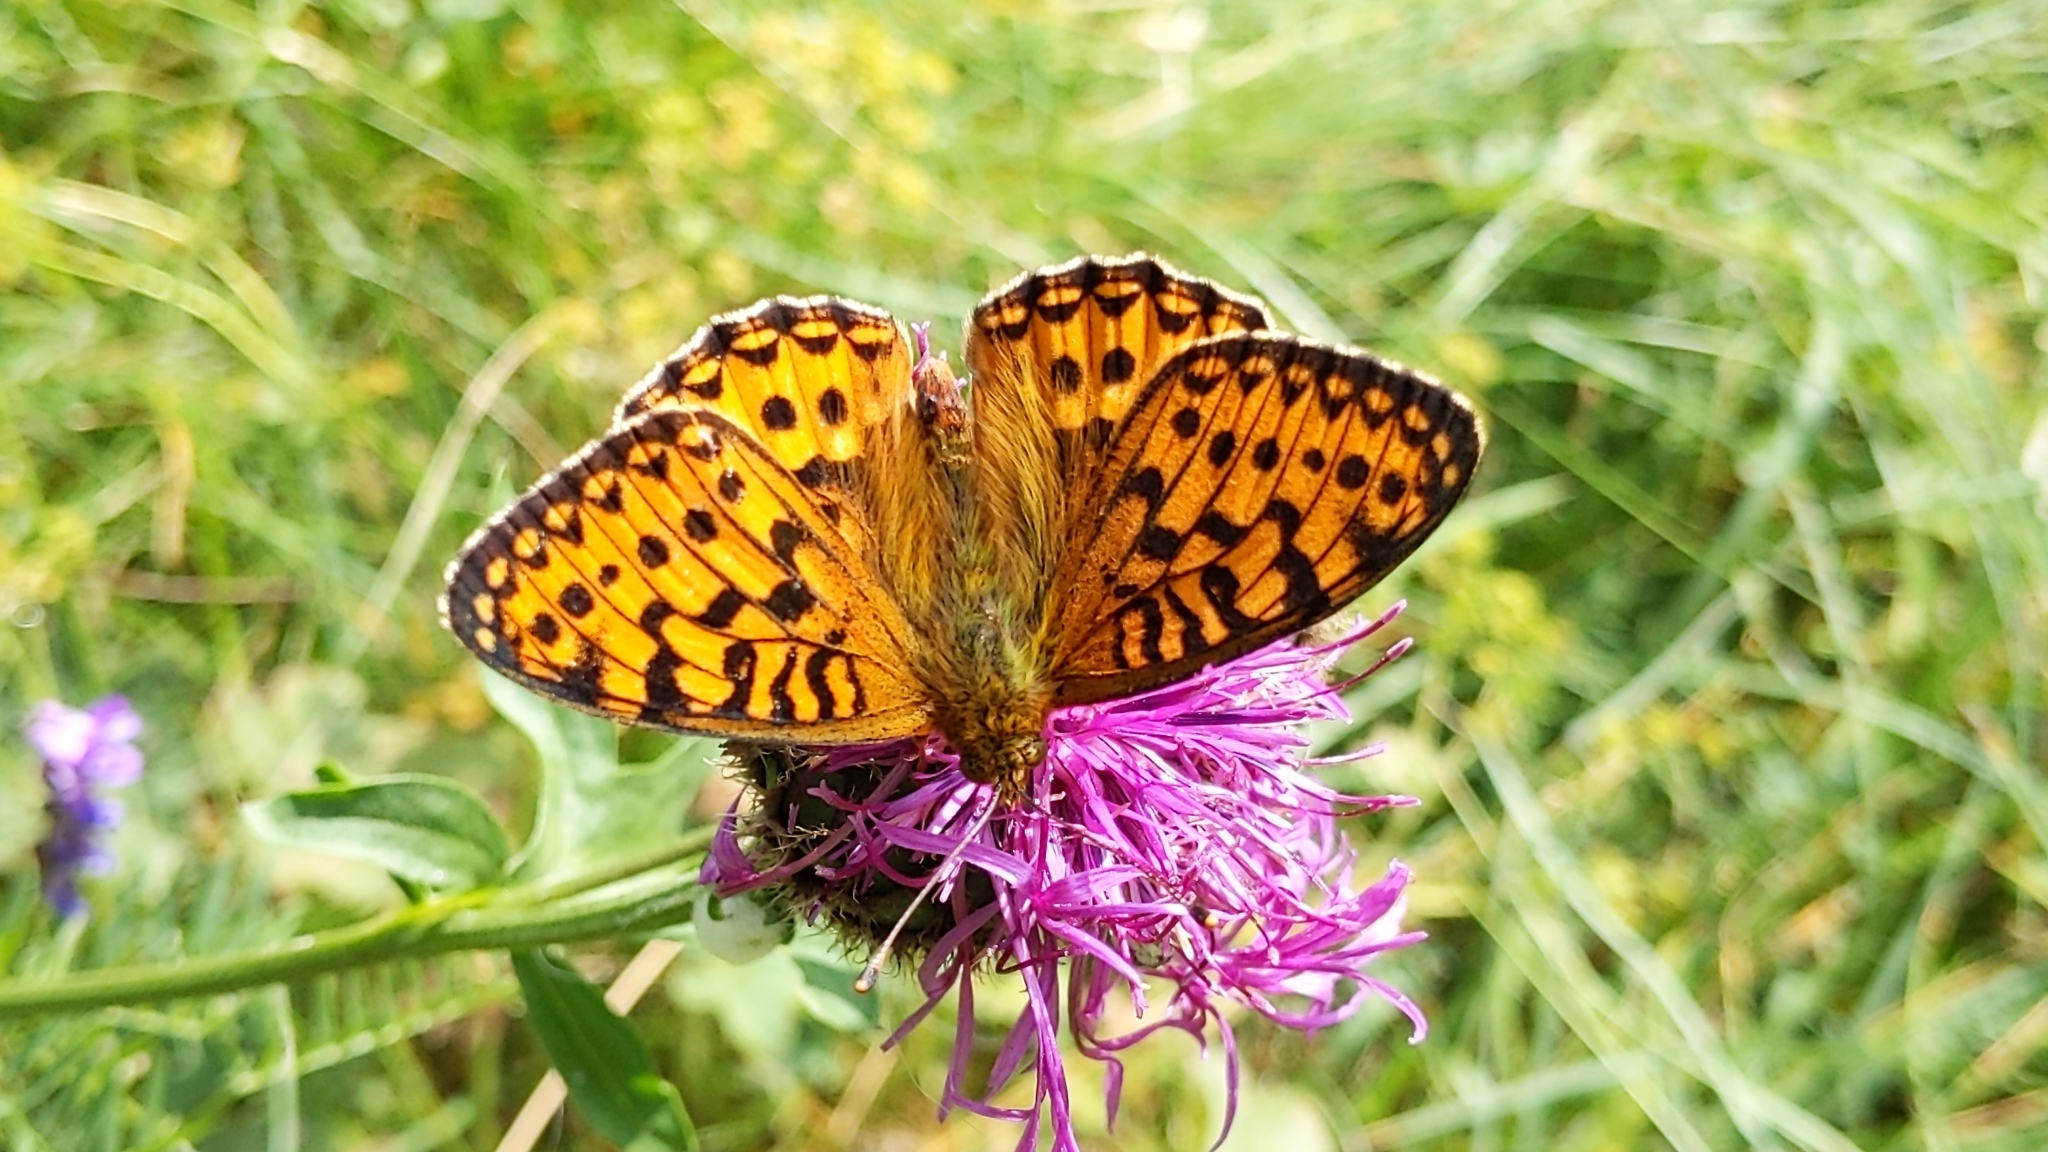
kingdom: Animalia
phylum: Arthropoda
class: Insecta
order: Lepidoptera
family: Nymphalidae
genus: Speyeria
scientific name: Speyeria aglaja
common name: Dark green fritillary
